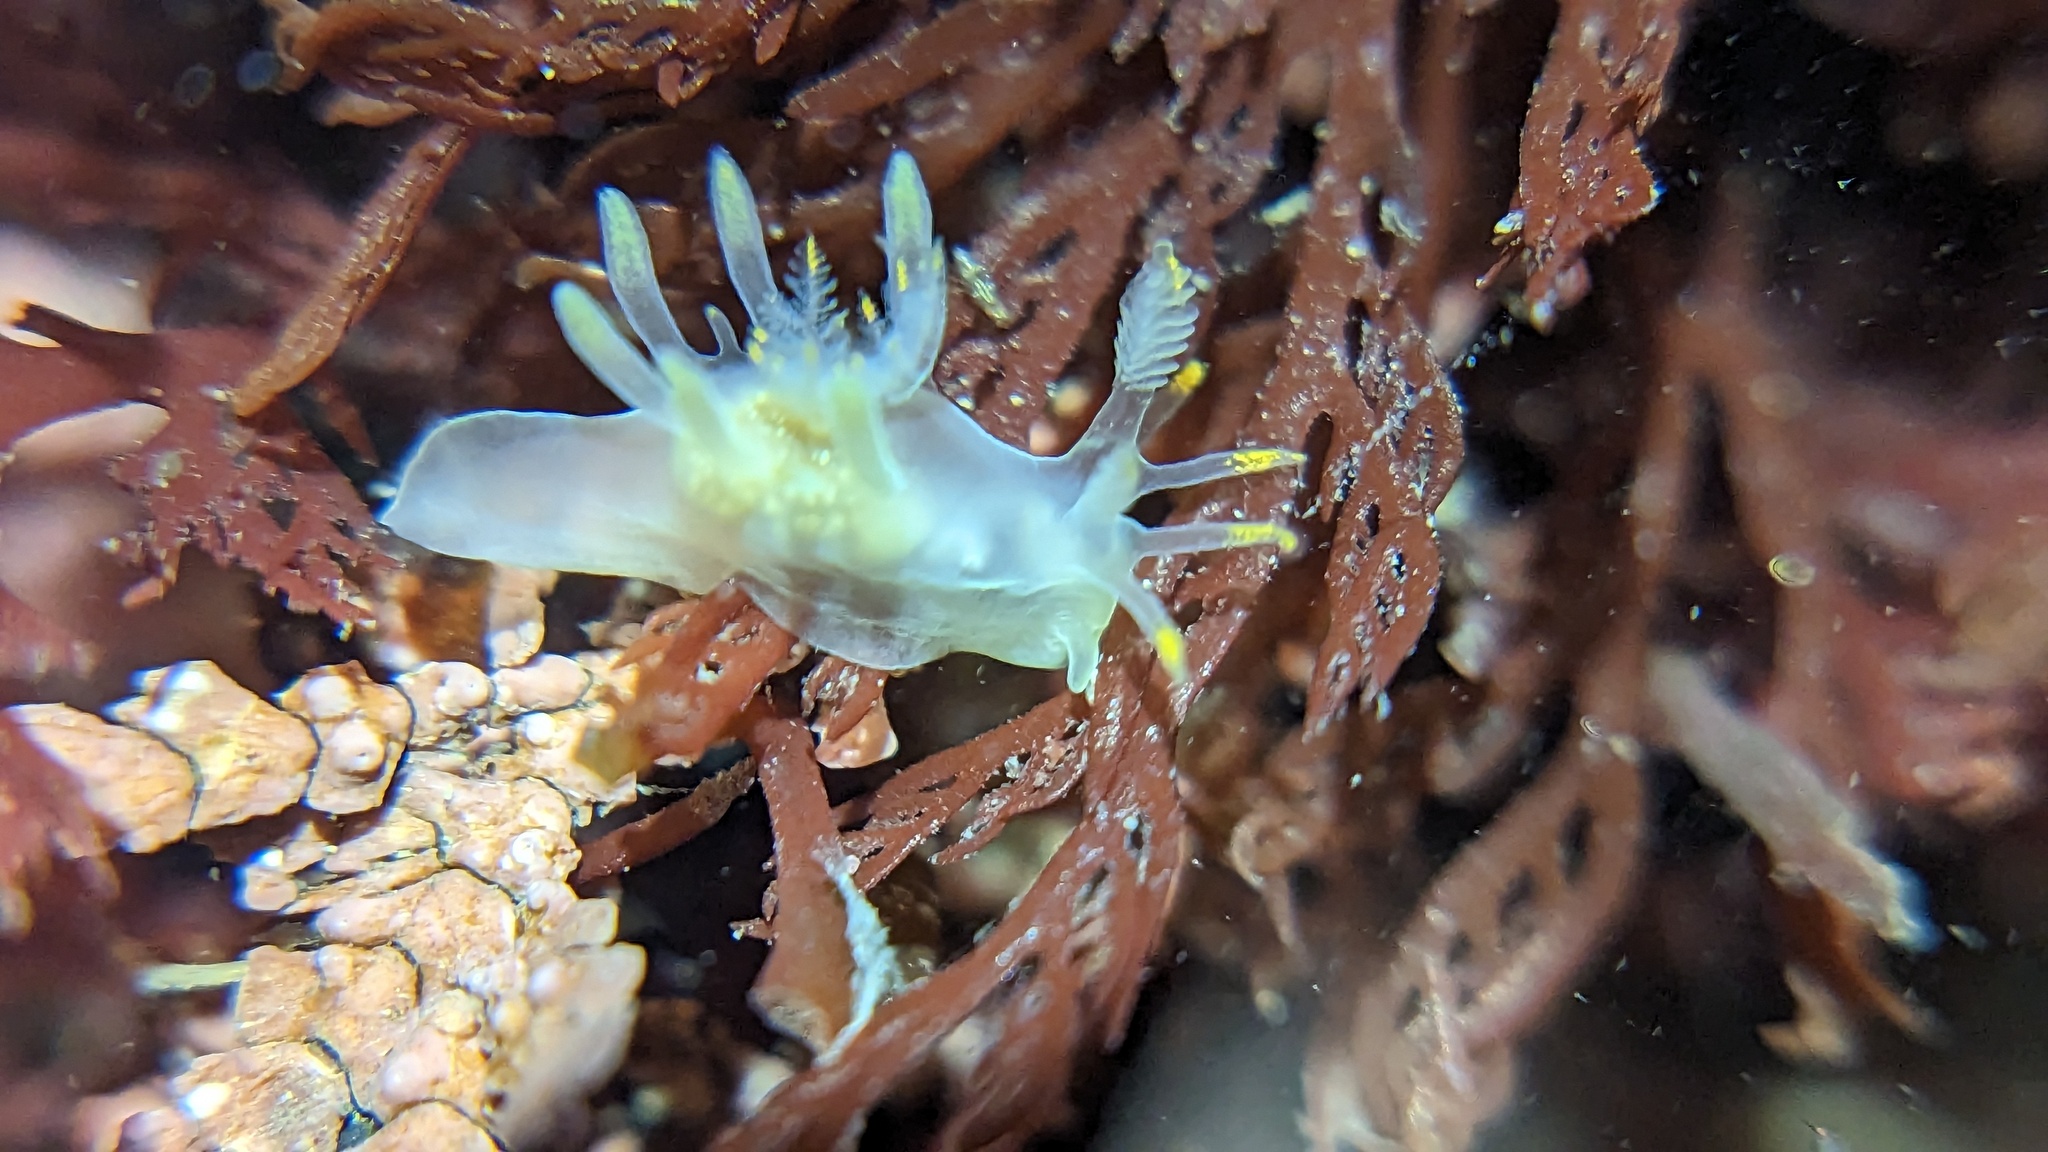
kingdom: Animalia
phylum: Mollusca
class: Gastropoda
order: Nudibranchia
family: Goniodorididae
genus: Ancula
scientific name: Ancula gibbosa
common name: Atlantic ancula
